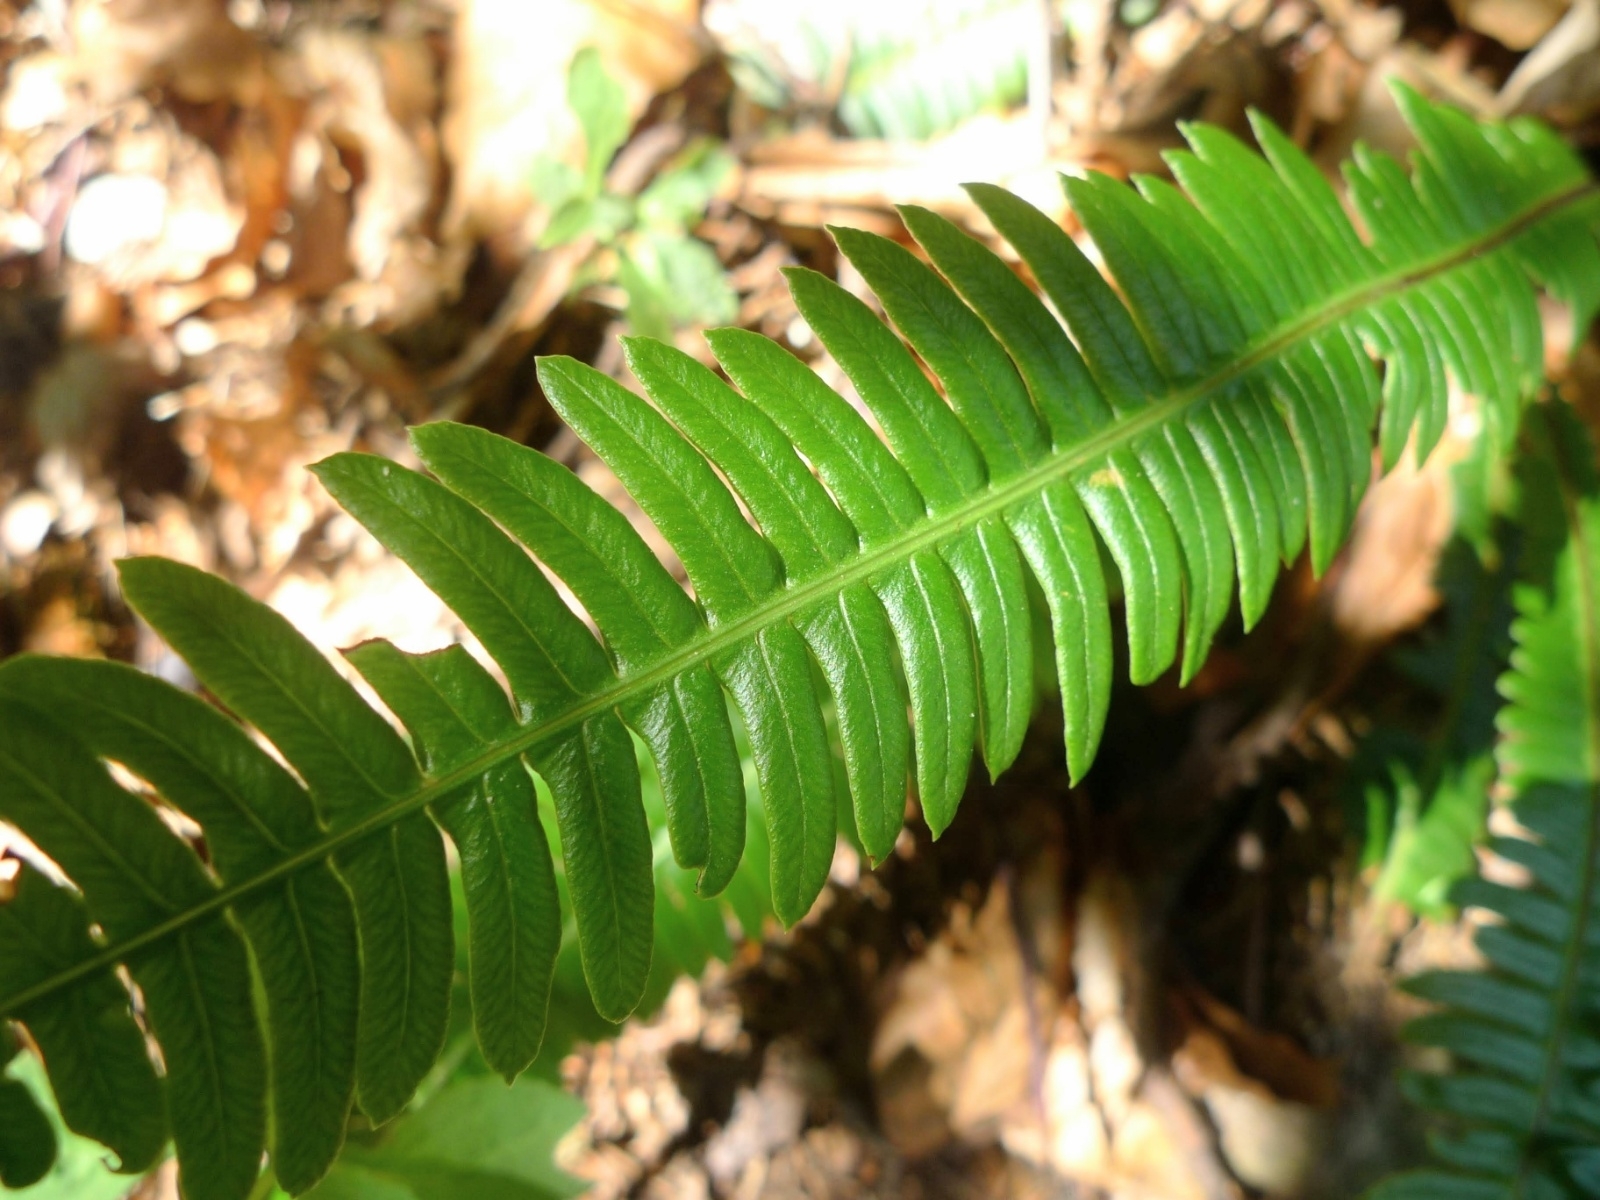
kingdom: Plantae
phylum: Tracheophyta
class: Polypodiopsida
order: Polypodiales
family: Blechnaceae
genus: Struthiopteris
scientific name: Struthiopteris spicant
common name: Deer fern
